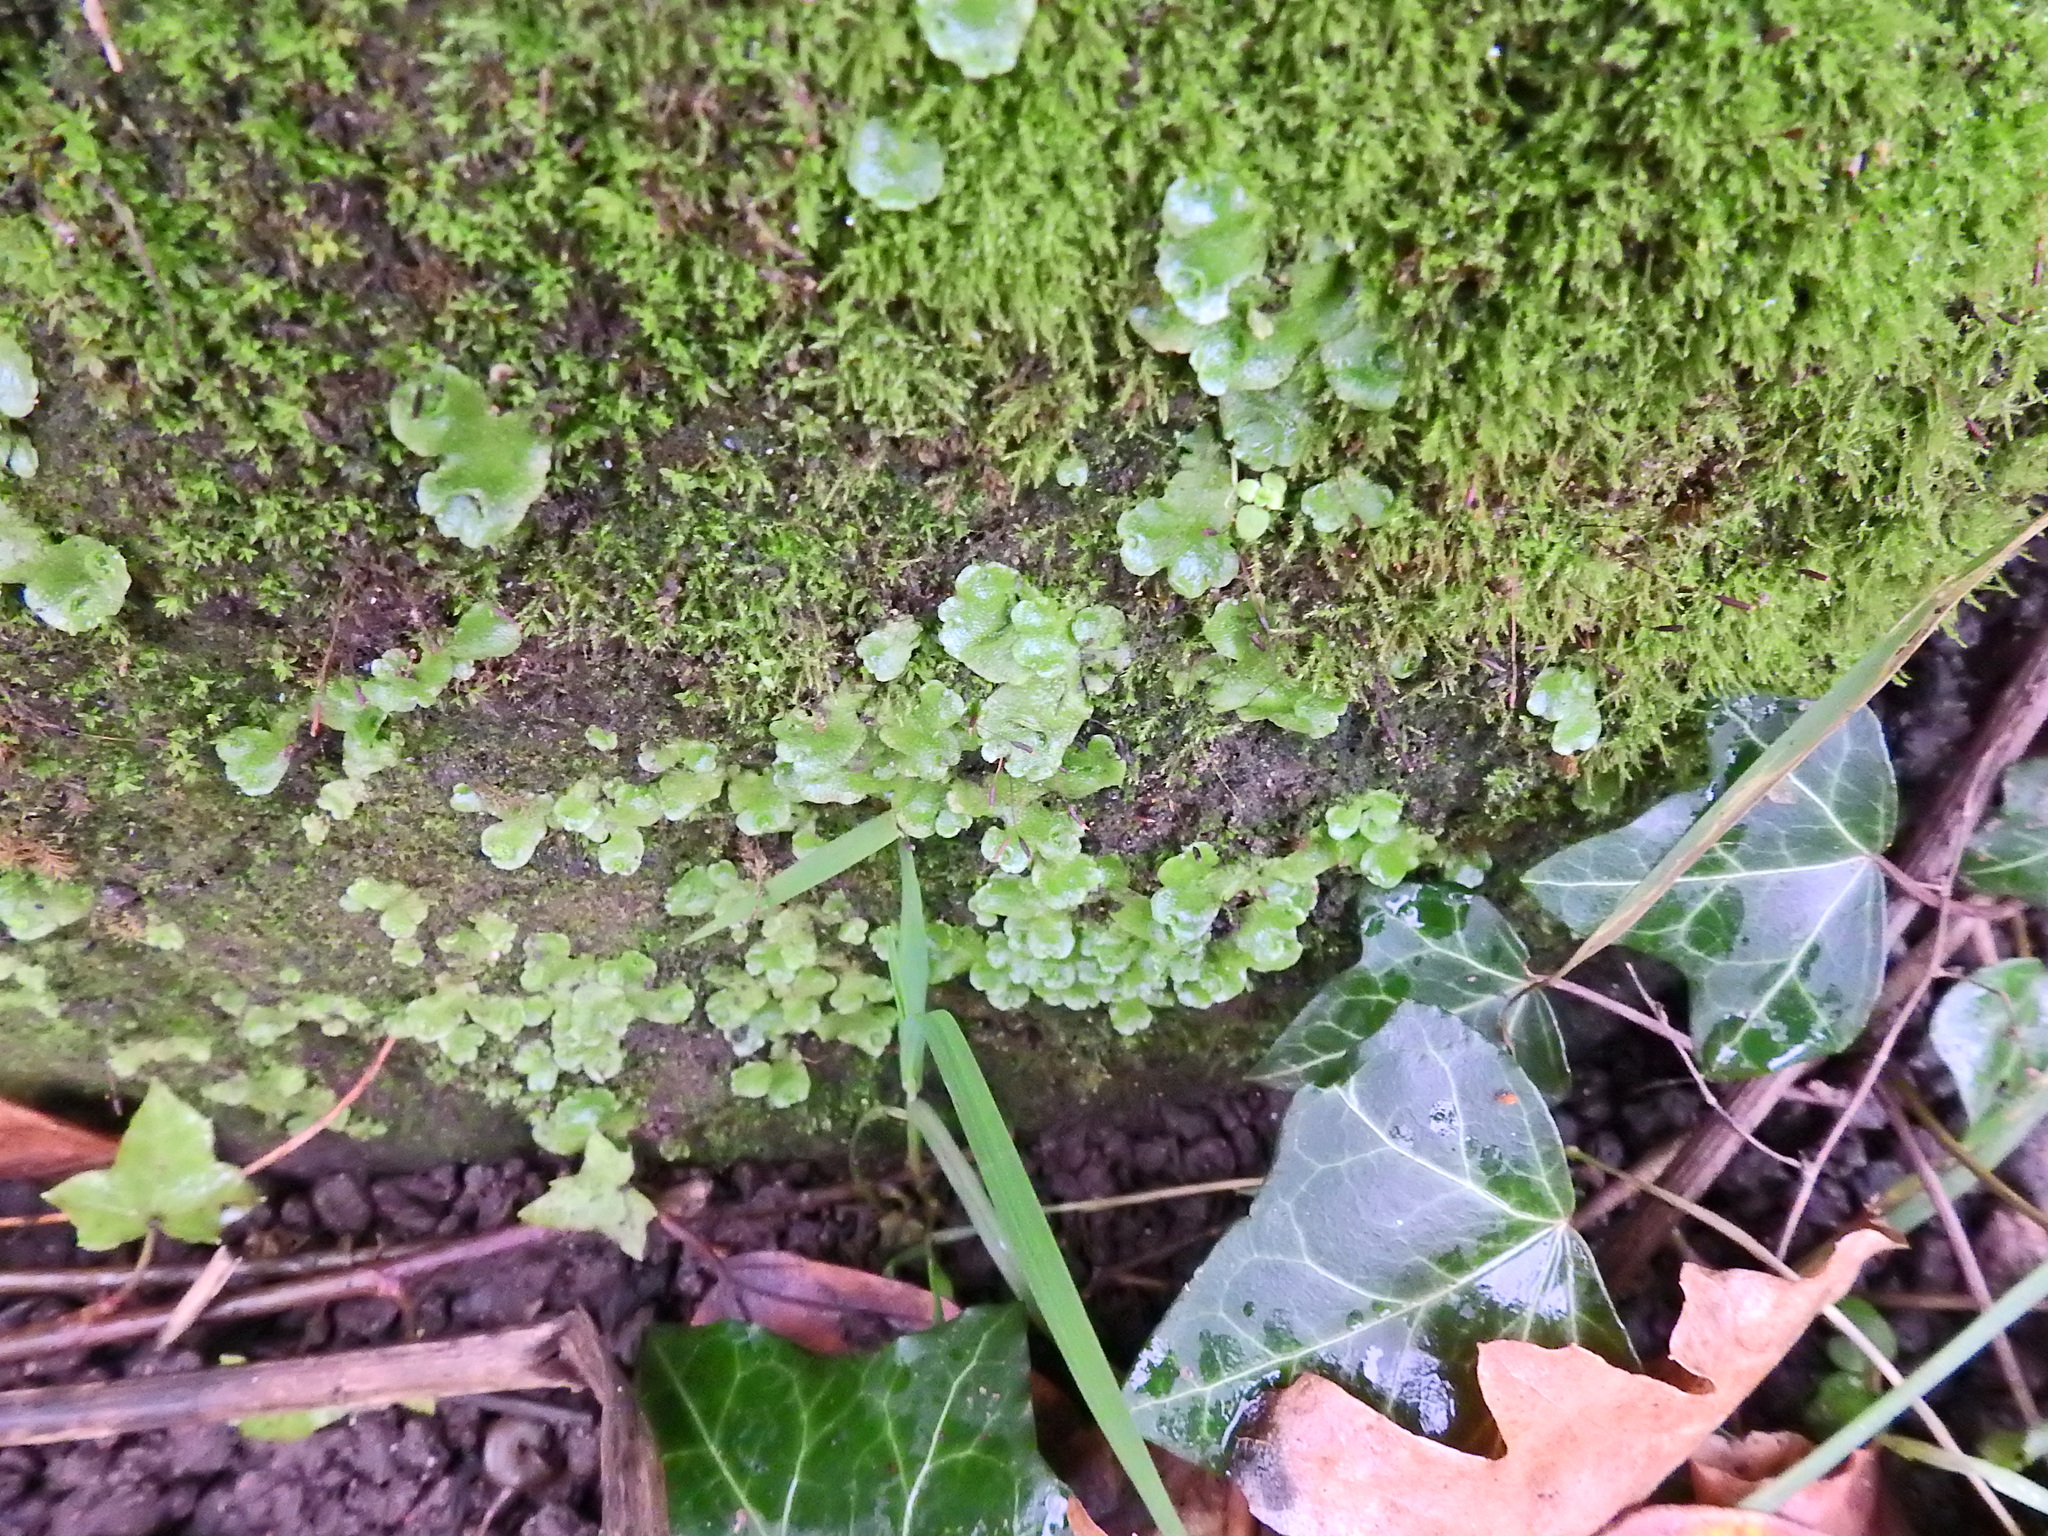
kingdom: Plantae
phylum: Marchantiophyta
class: Marchantiopsida
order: Lunulariales
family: Lunulariaceae
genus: Lunularia
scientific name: Lunularia cruciata
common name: Crescent-cup liverwort
